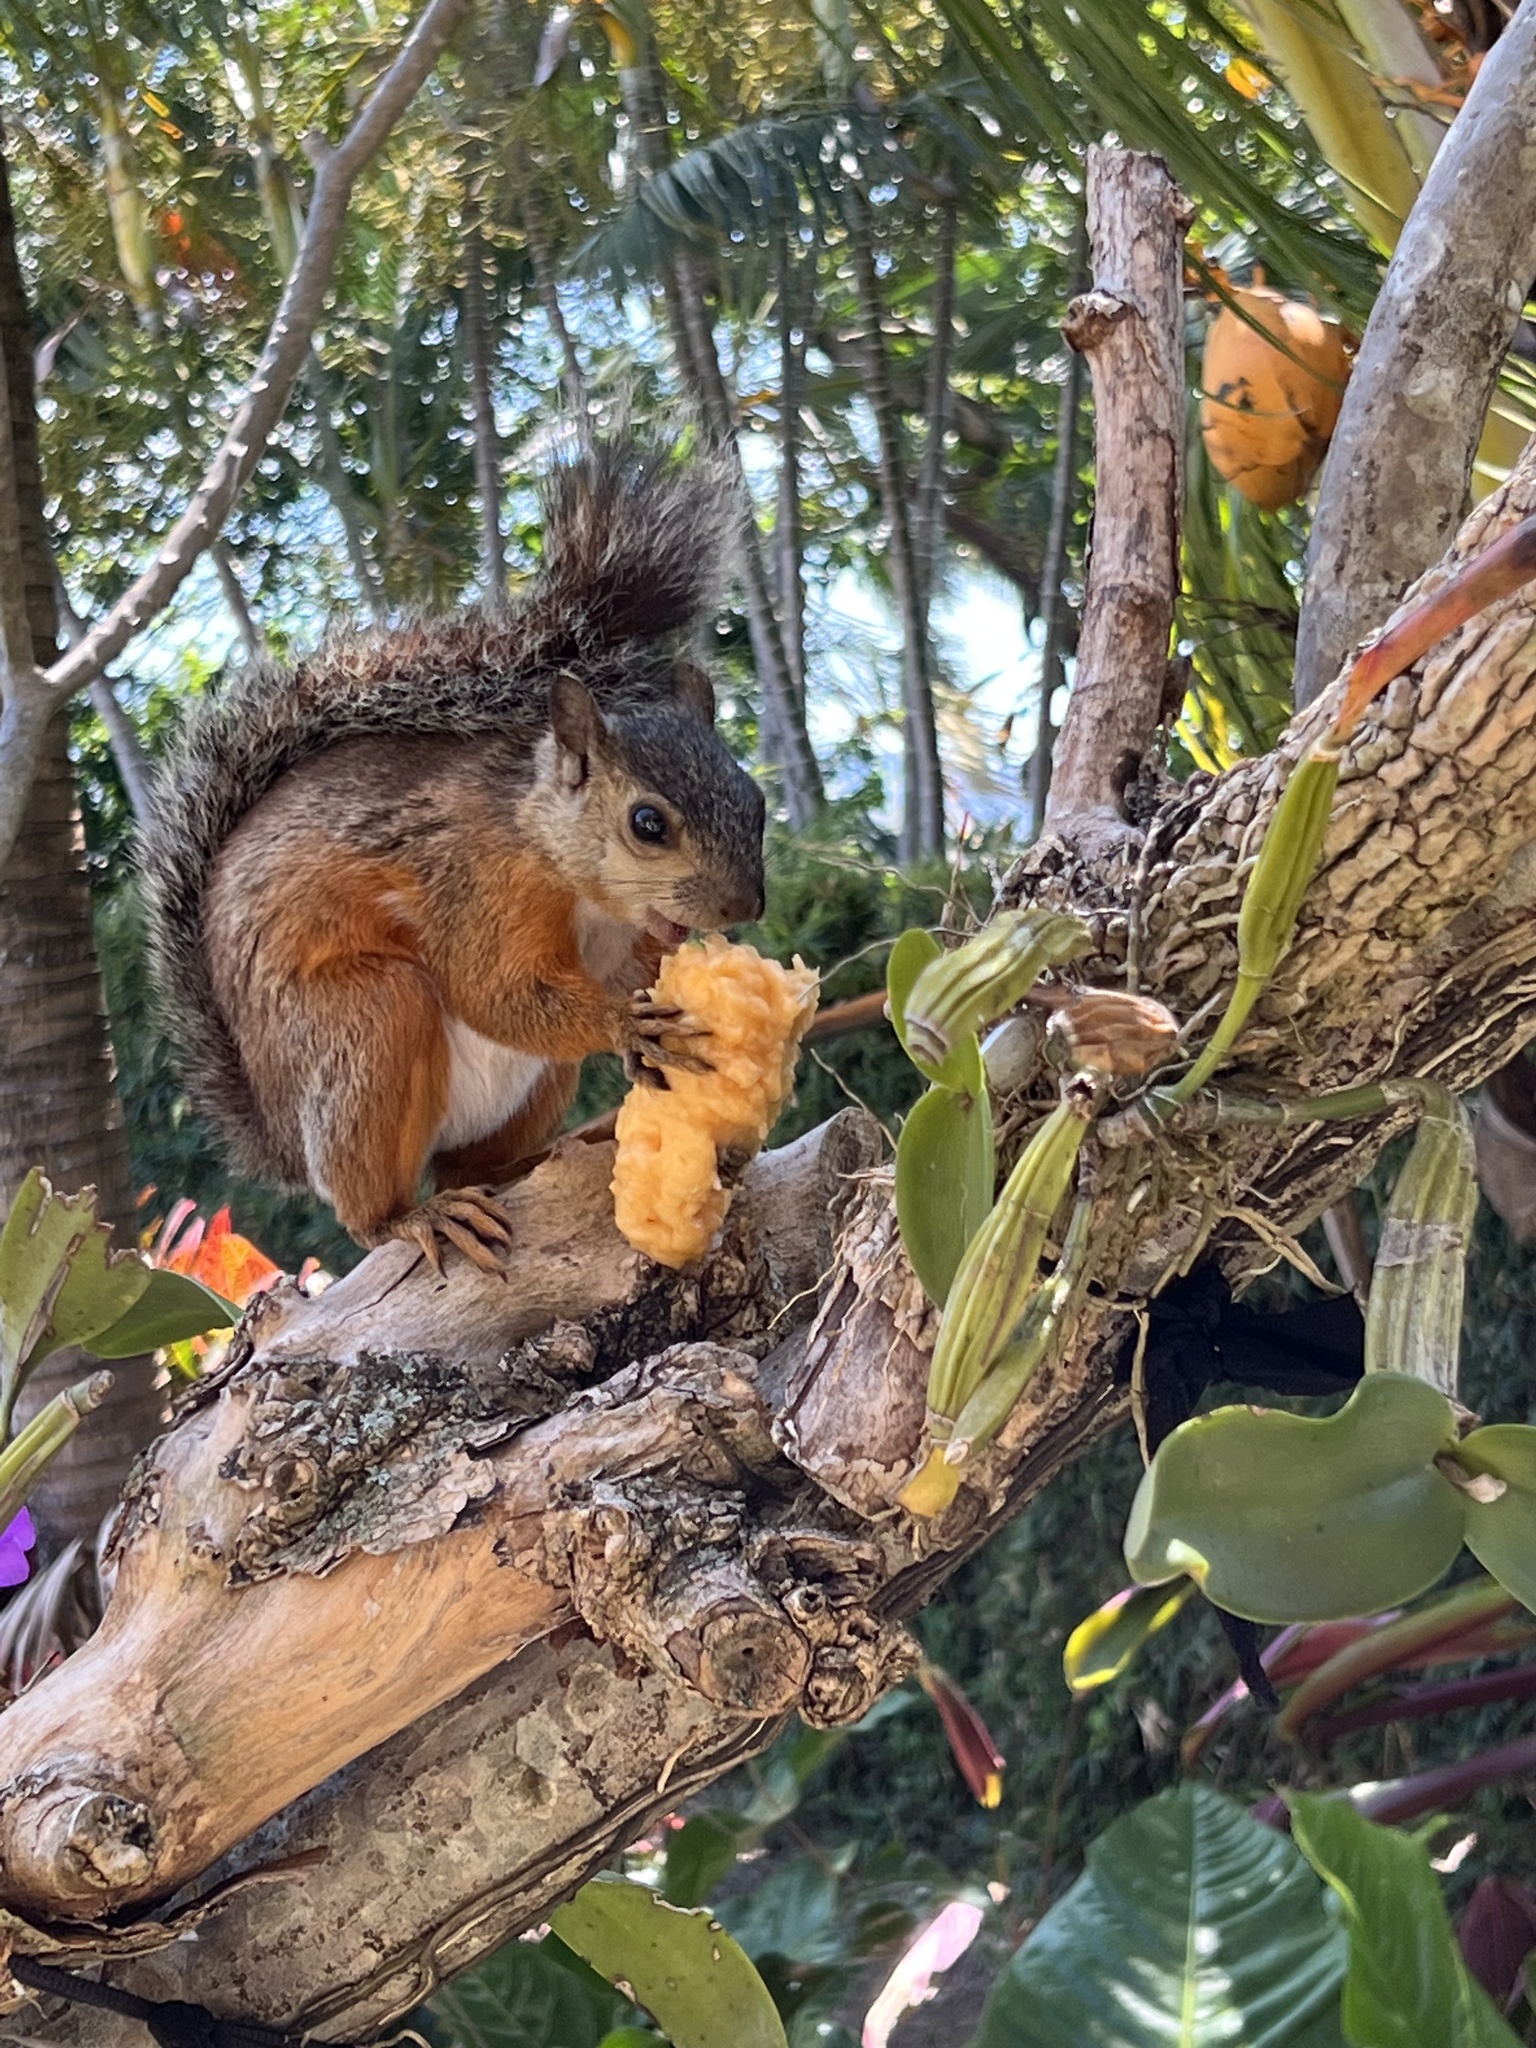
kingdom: Animalia
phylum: Chordata
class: Mammalia
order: Rodentia
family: Sciuridae
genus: Sciurus
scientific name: Sciurus variegatoides
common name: Variegated squirrel
